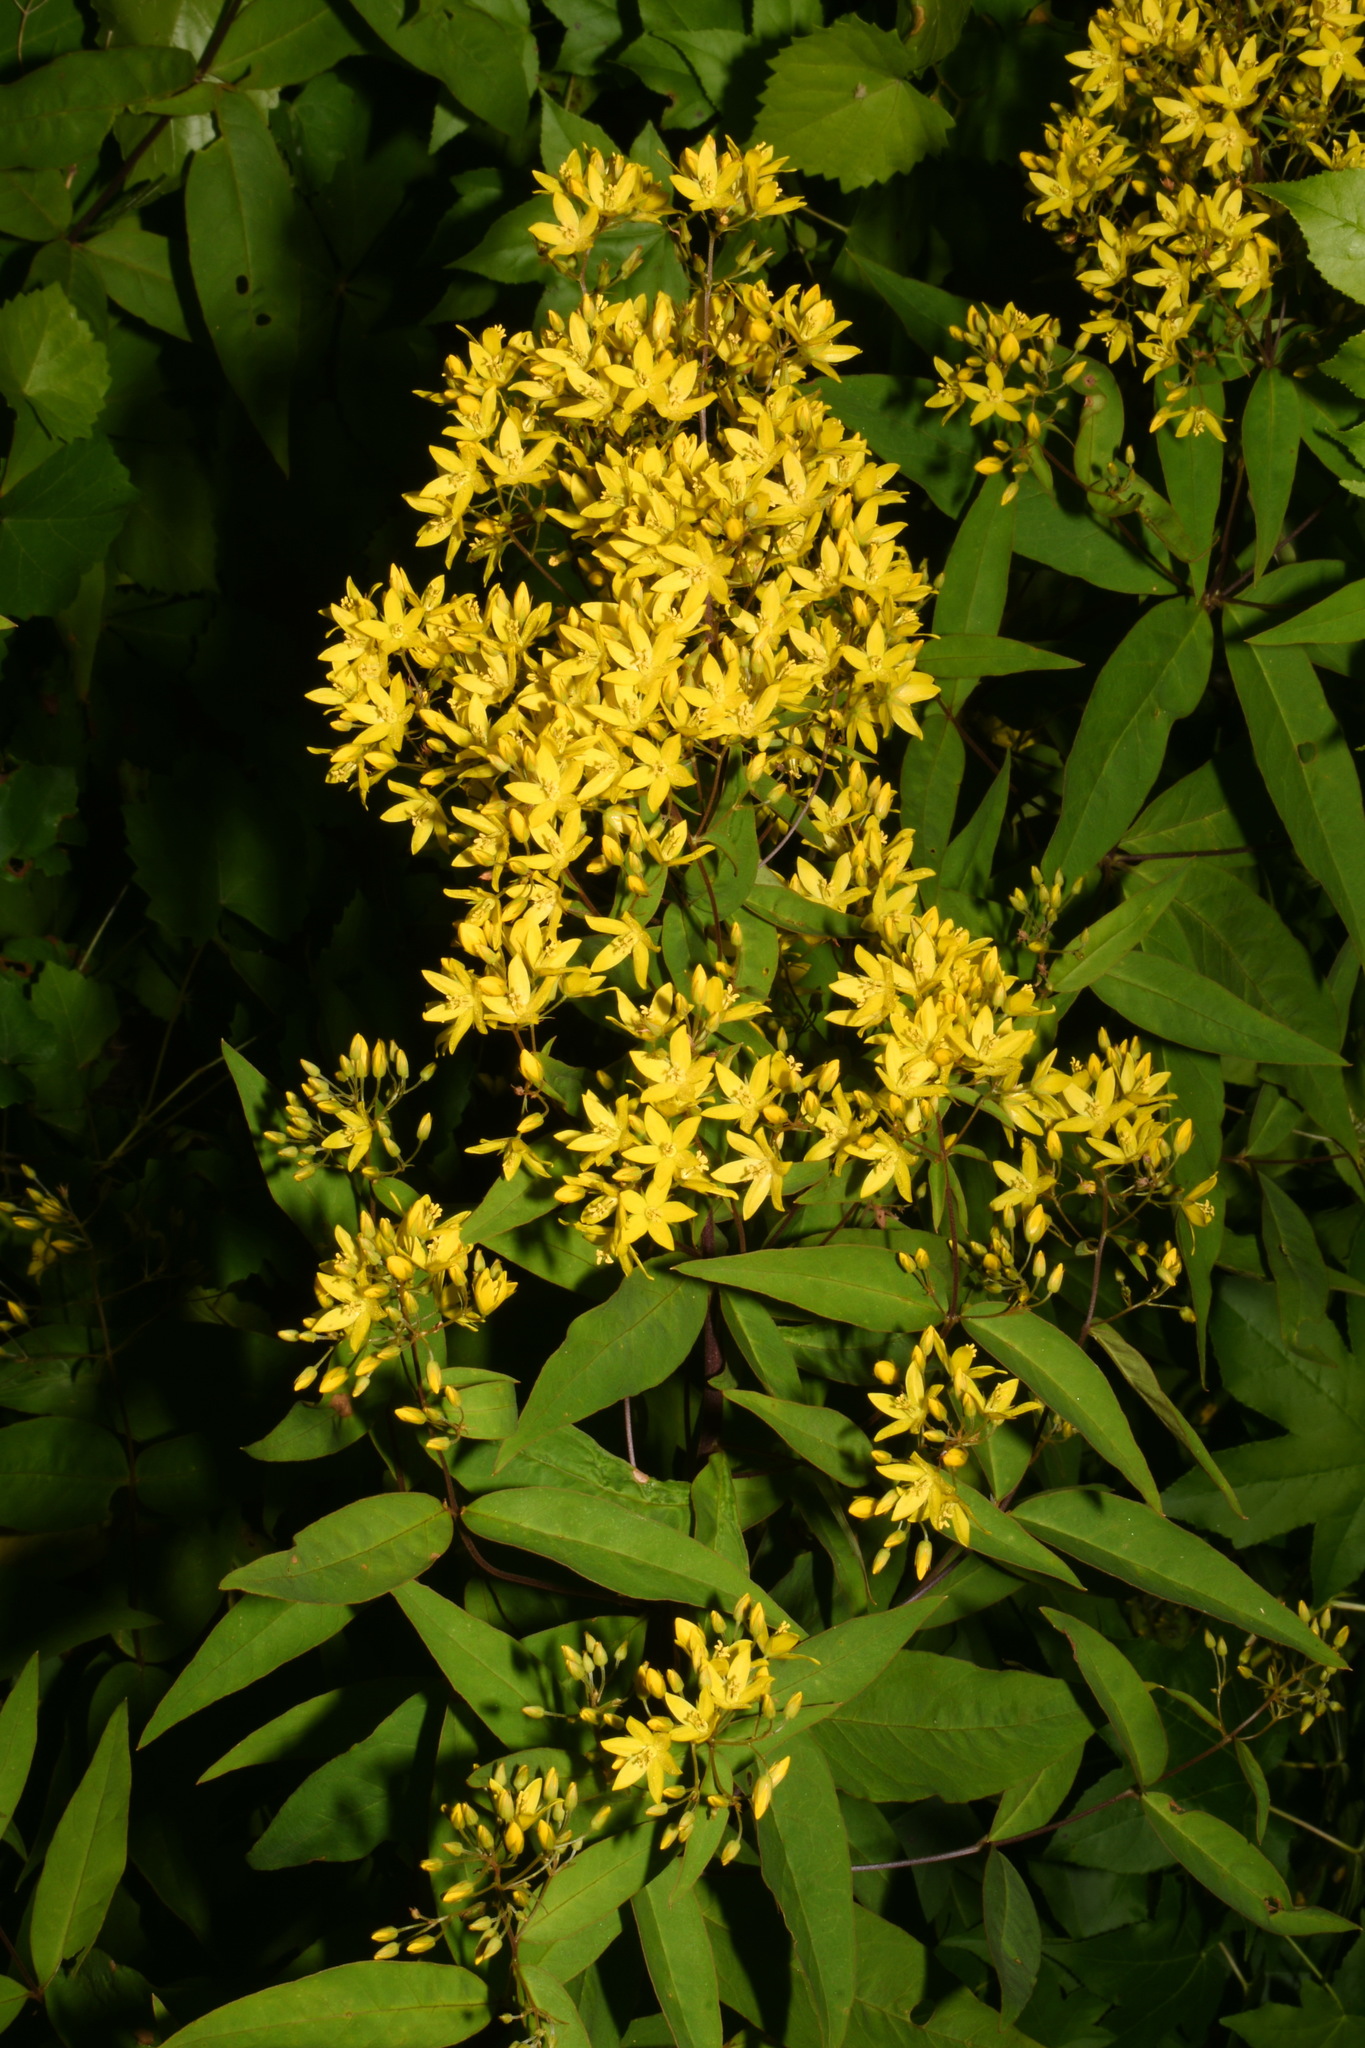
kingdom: Plantae
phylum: Tracheophyta
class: Magnoliopsida
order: Ericales
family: Primulaceae
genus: Lysimachia
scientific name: Lysimachia fraseri
